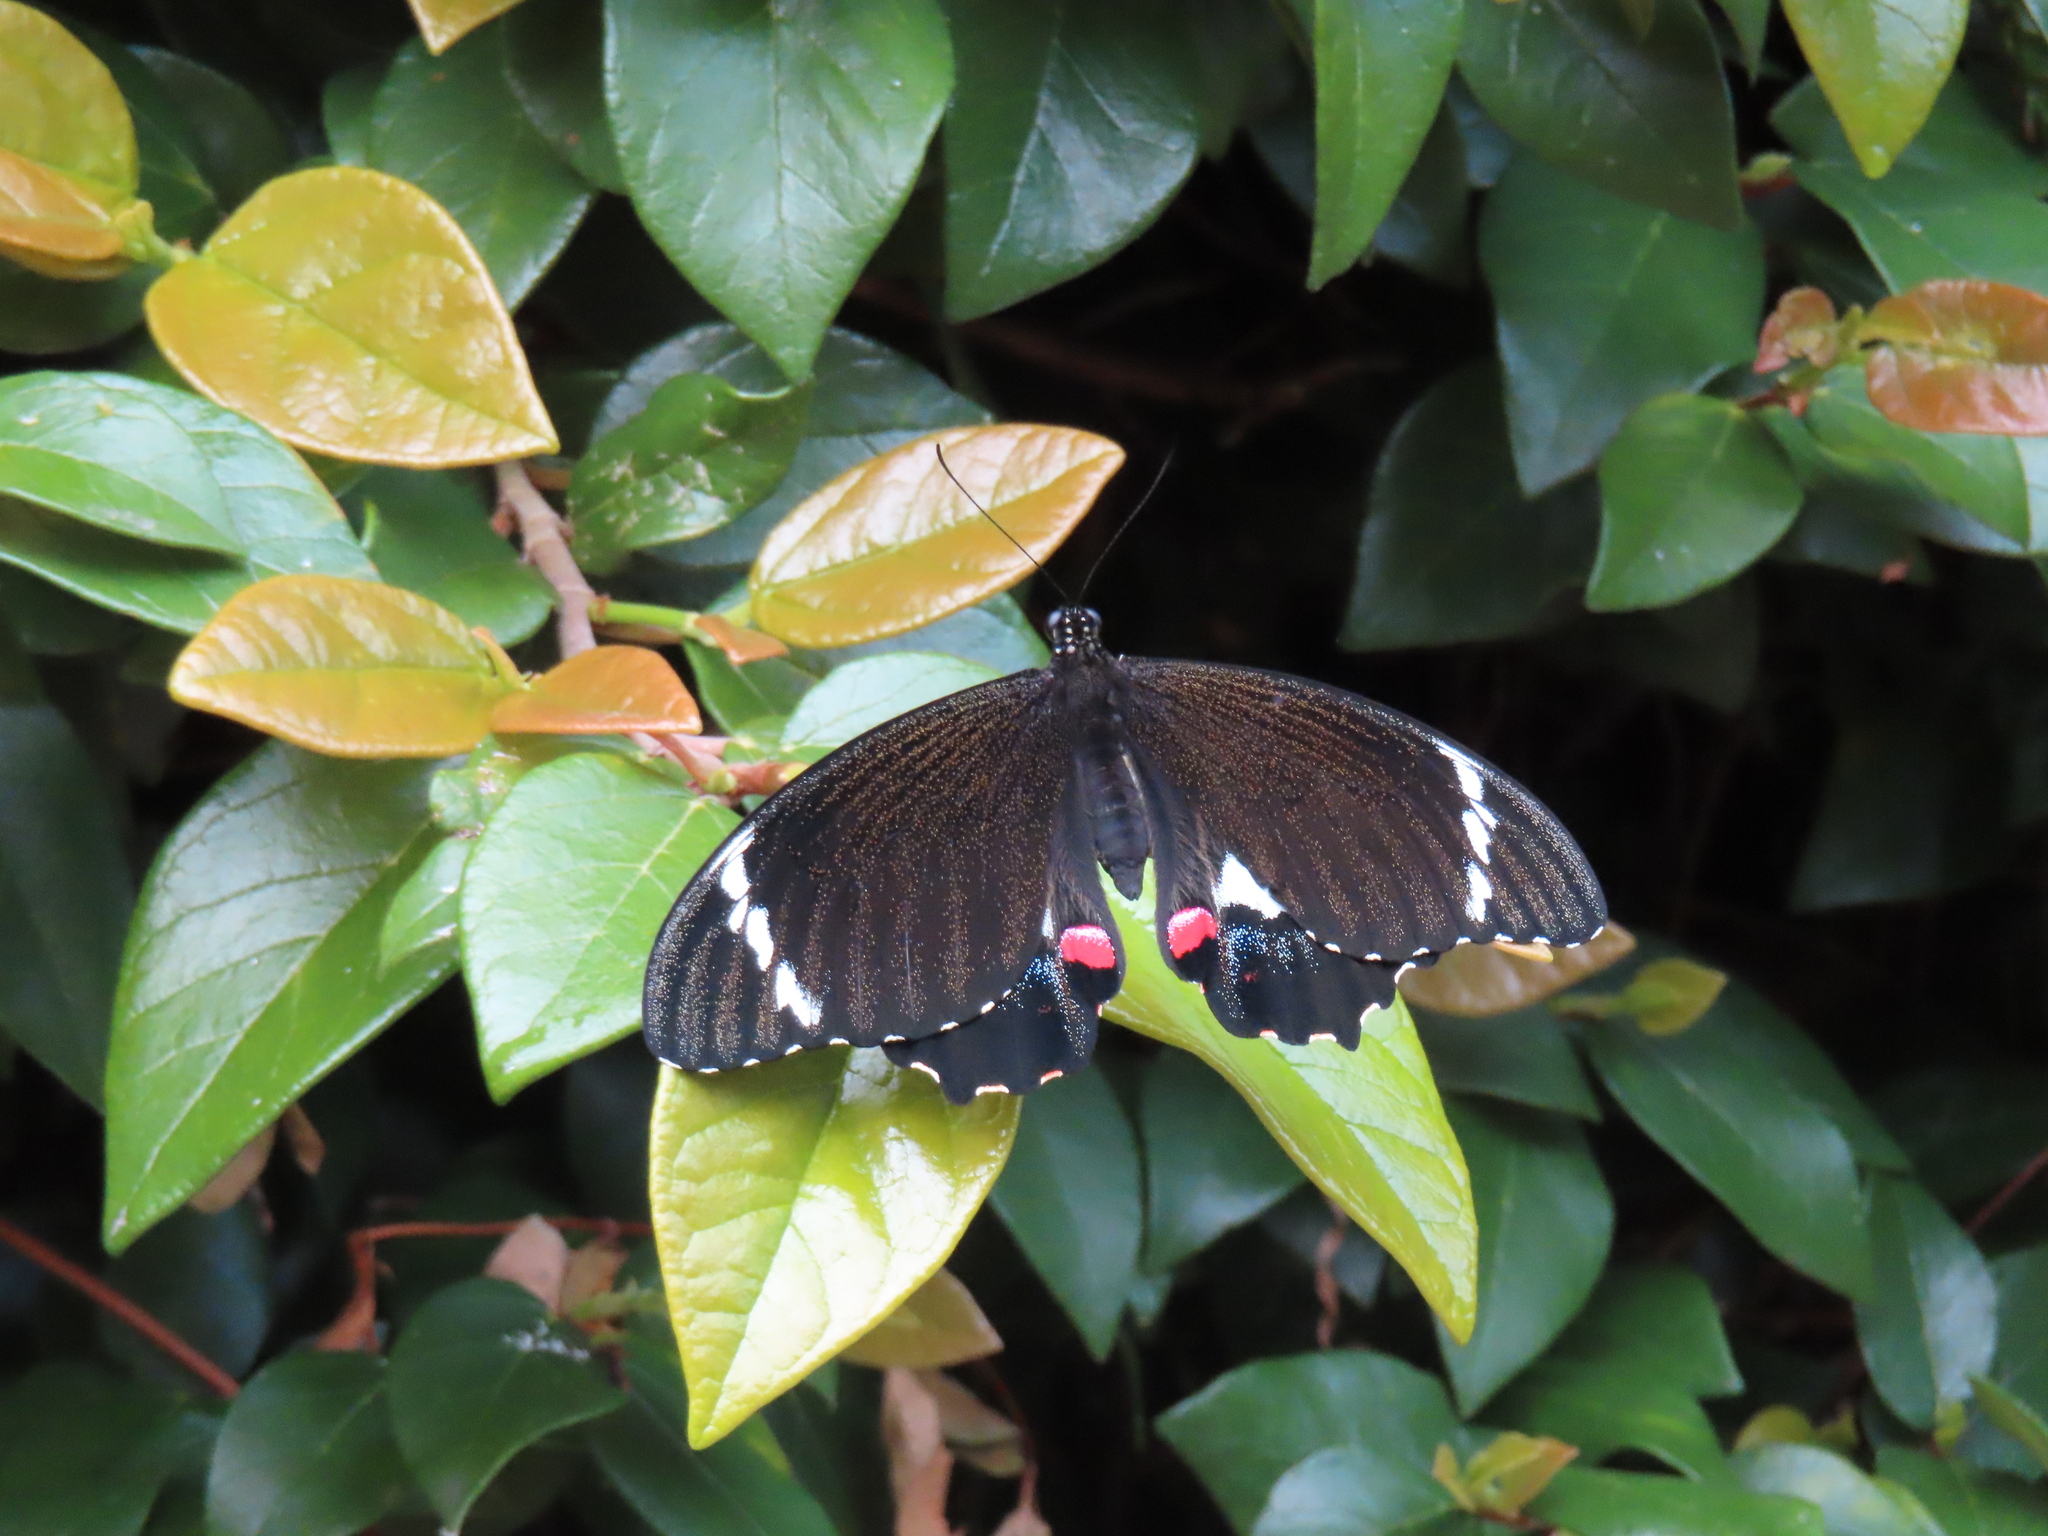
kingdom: Animalia
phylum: Arthropoda
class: Insecta
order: Lepidoptera
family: Papilionidae
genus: Papilio
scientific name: Papilio aegeus
